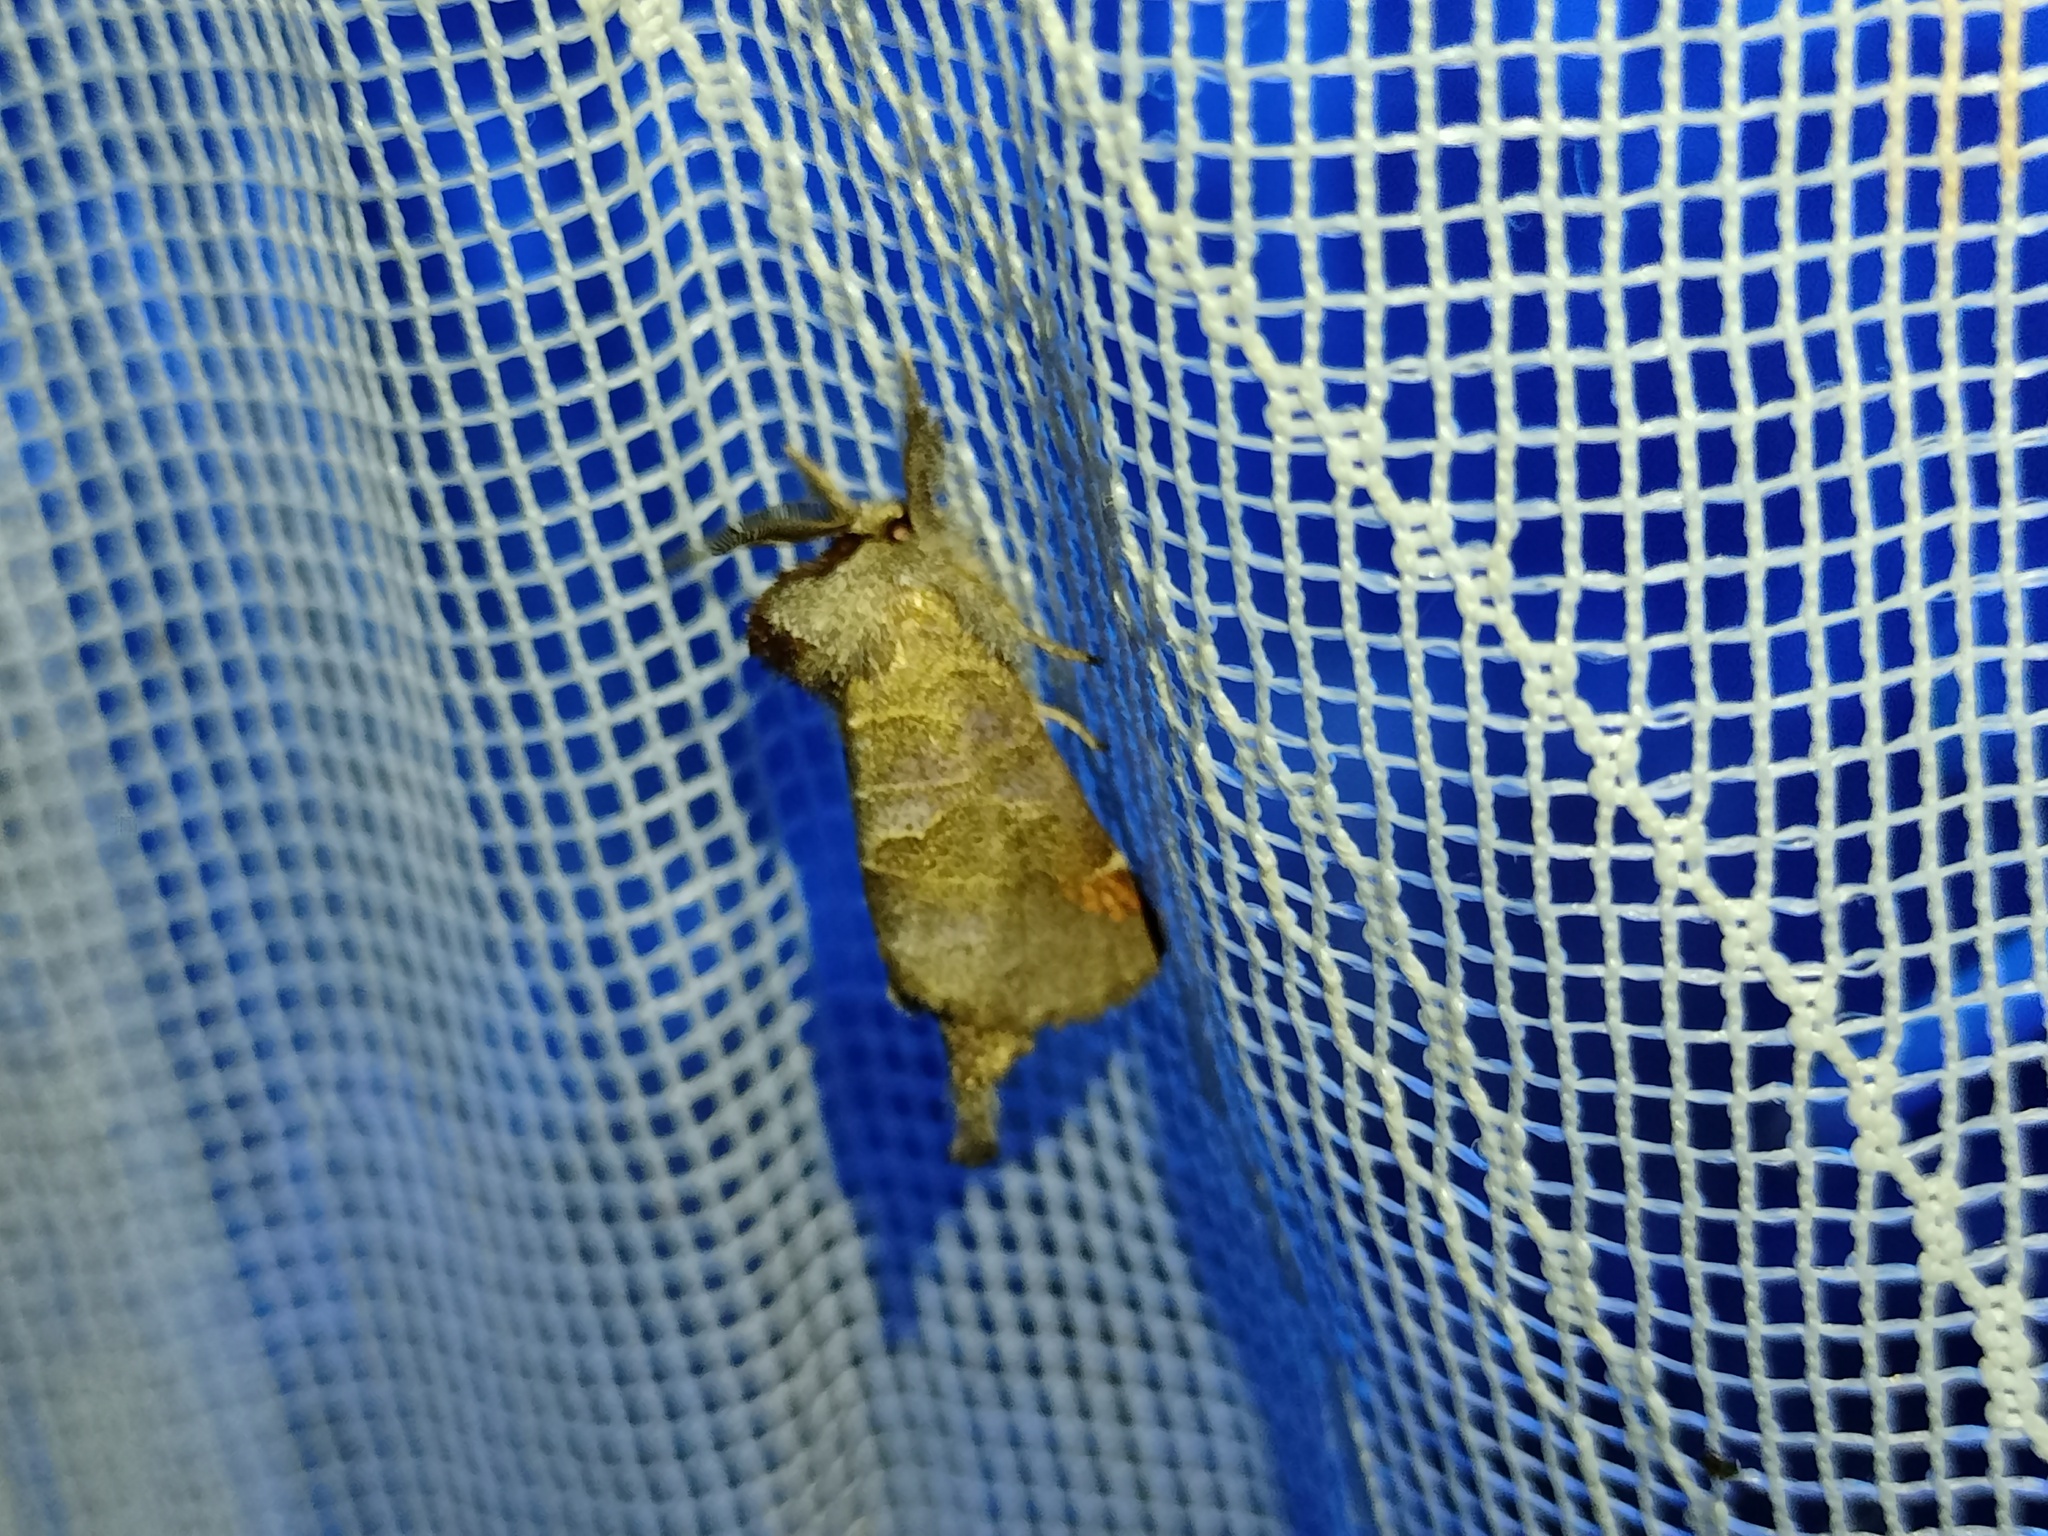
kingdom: Animalia
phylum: Arthropoda
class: Insecta
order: Lepidoptera
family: Notodontidae
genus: Clostera
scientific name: Clostera pigra
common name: Small chocolate-tip
